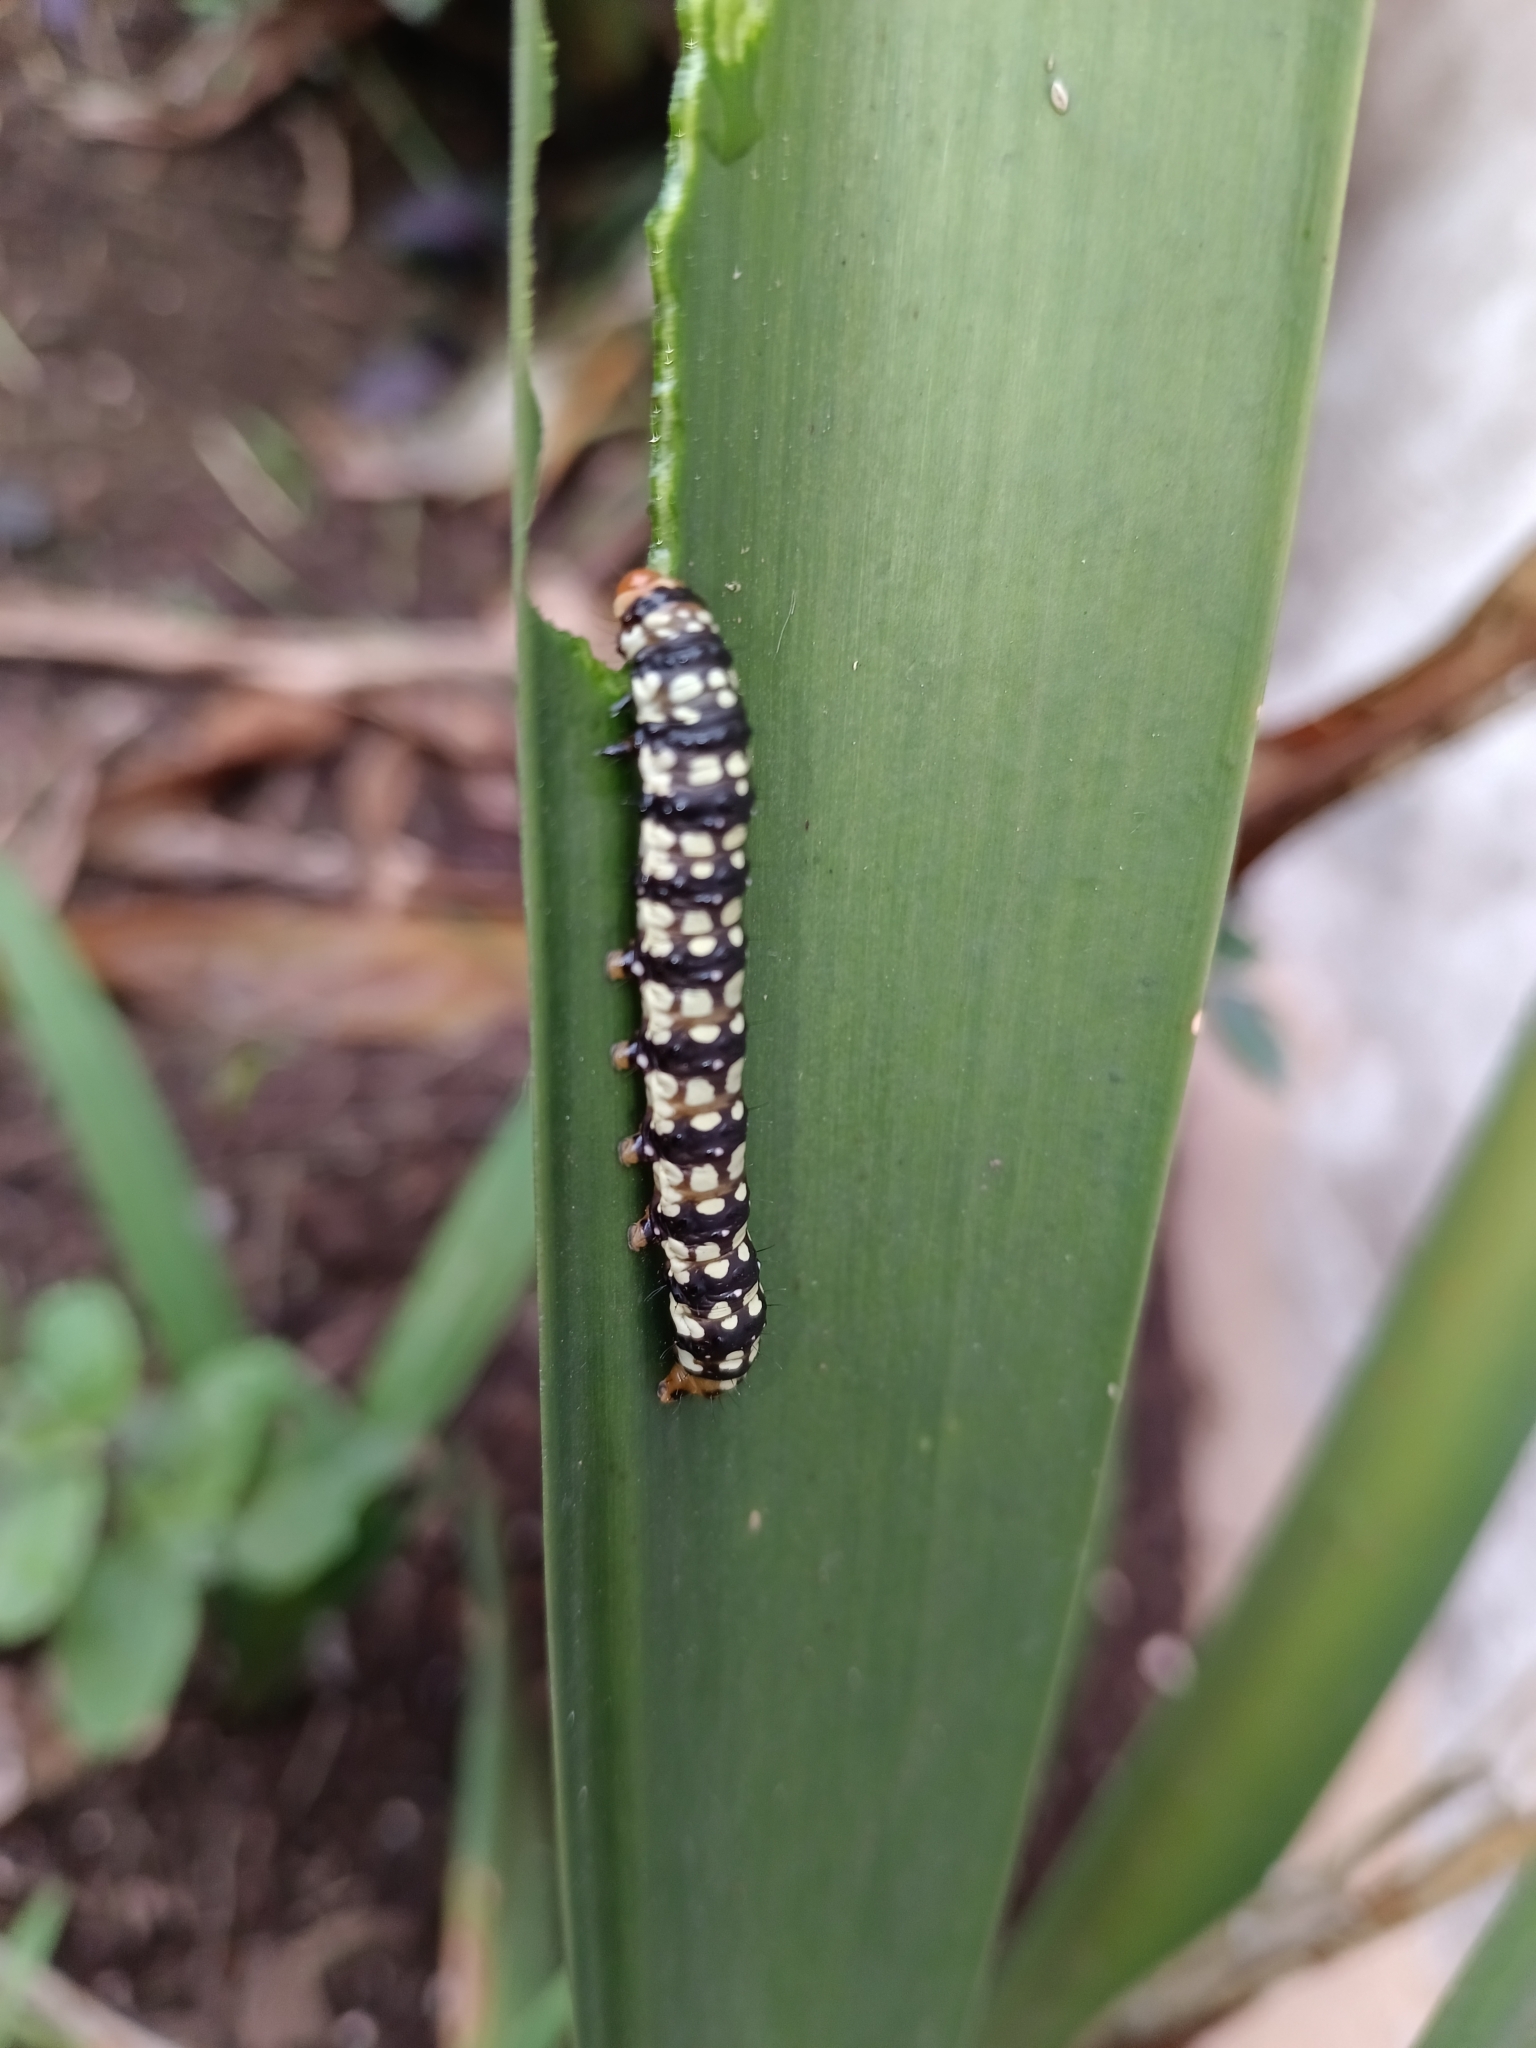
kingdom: Animalia
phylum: Arthropoda
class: Insecta
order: Lepidoptera
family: Noctuidae
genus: Brithys
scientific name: Brithys crini
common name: Kew arches
